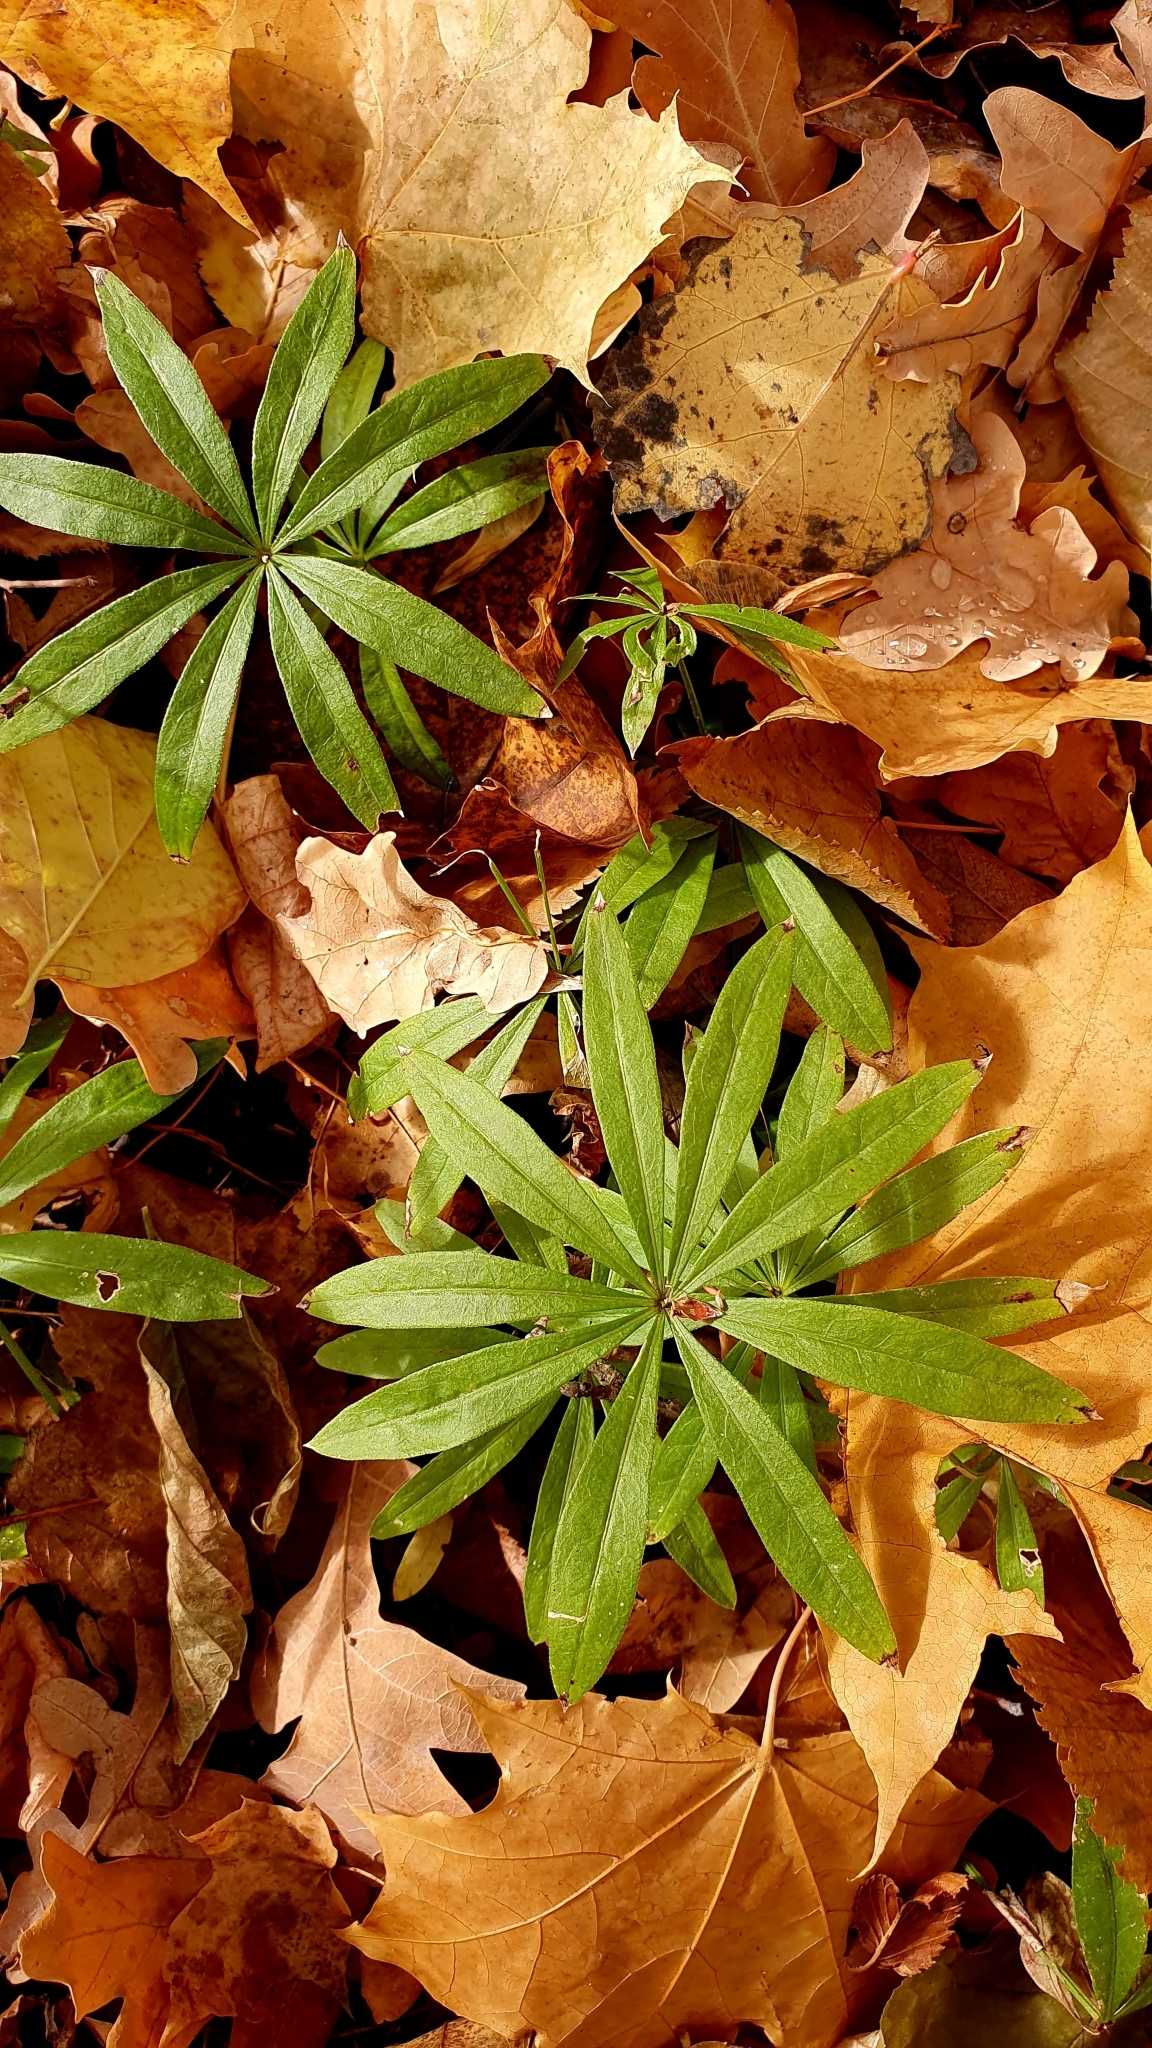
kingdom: Plantae
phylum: Tracheophyta
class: Magnoliopsida
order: Gentianales
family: Rubiaceae
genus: Galium
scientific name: Galium odoratum
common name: Sweet woodruff
